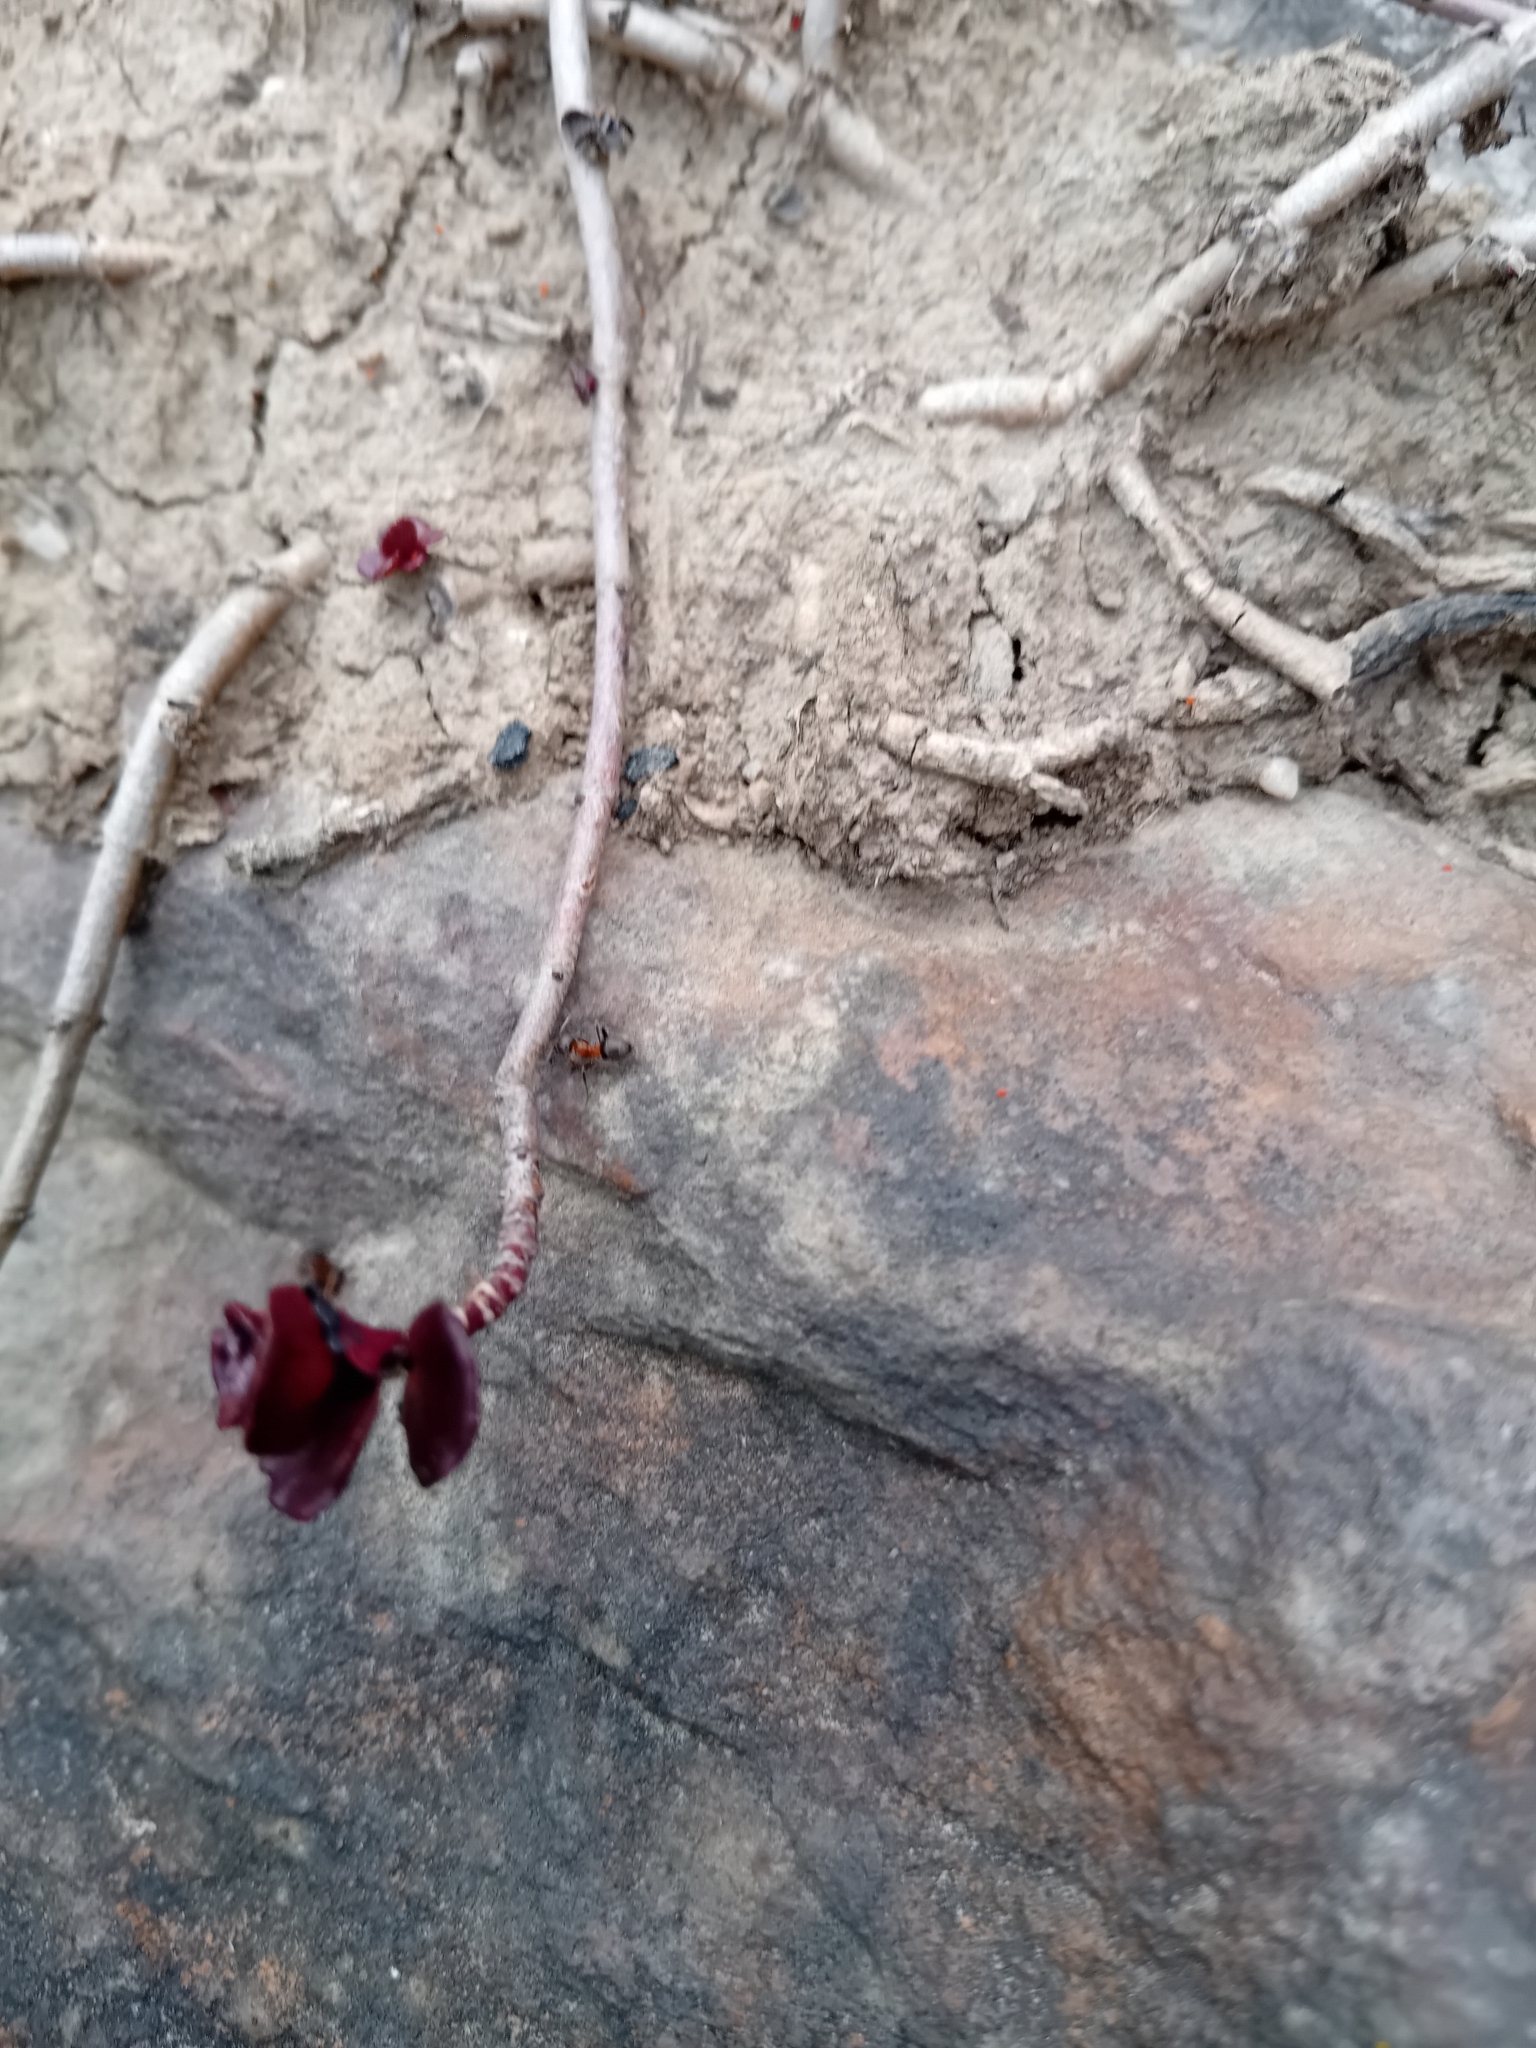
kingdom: Animalia
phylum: Arthropoda
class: Insecta
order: Hymenoptera
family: Formicidae
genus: Lasius
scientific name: Lasius emarginatus
